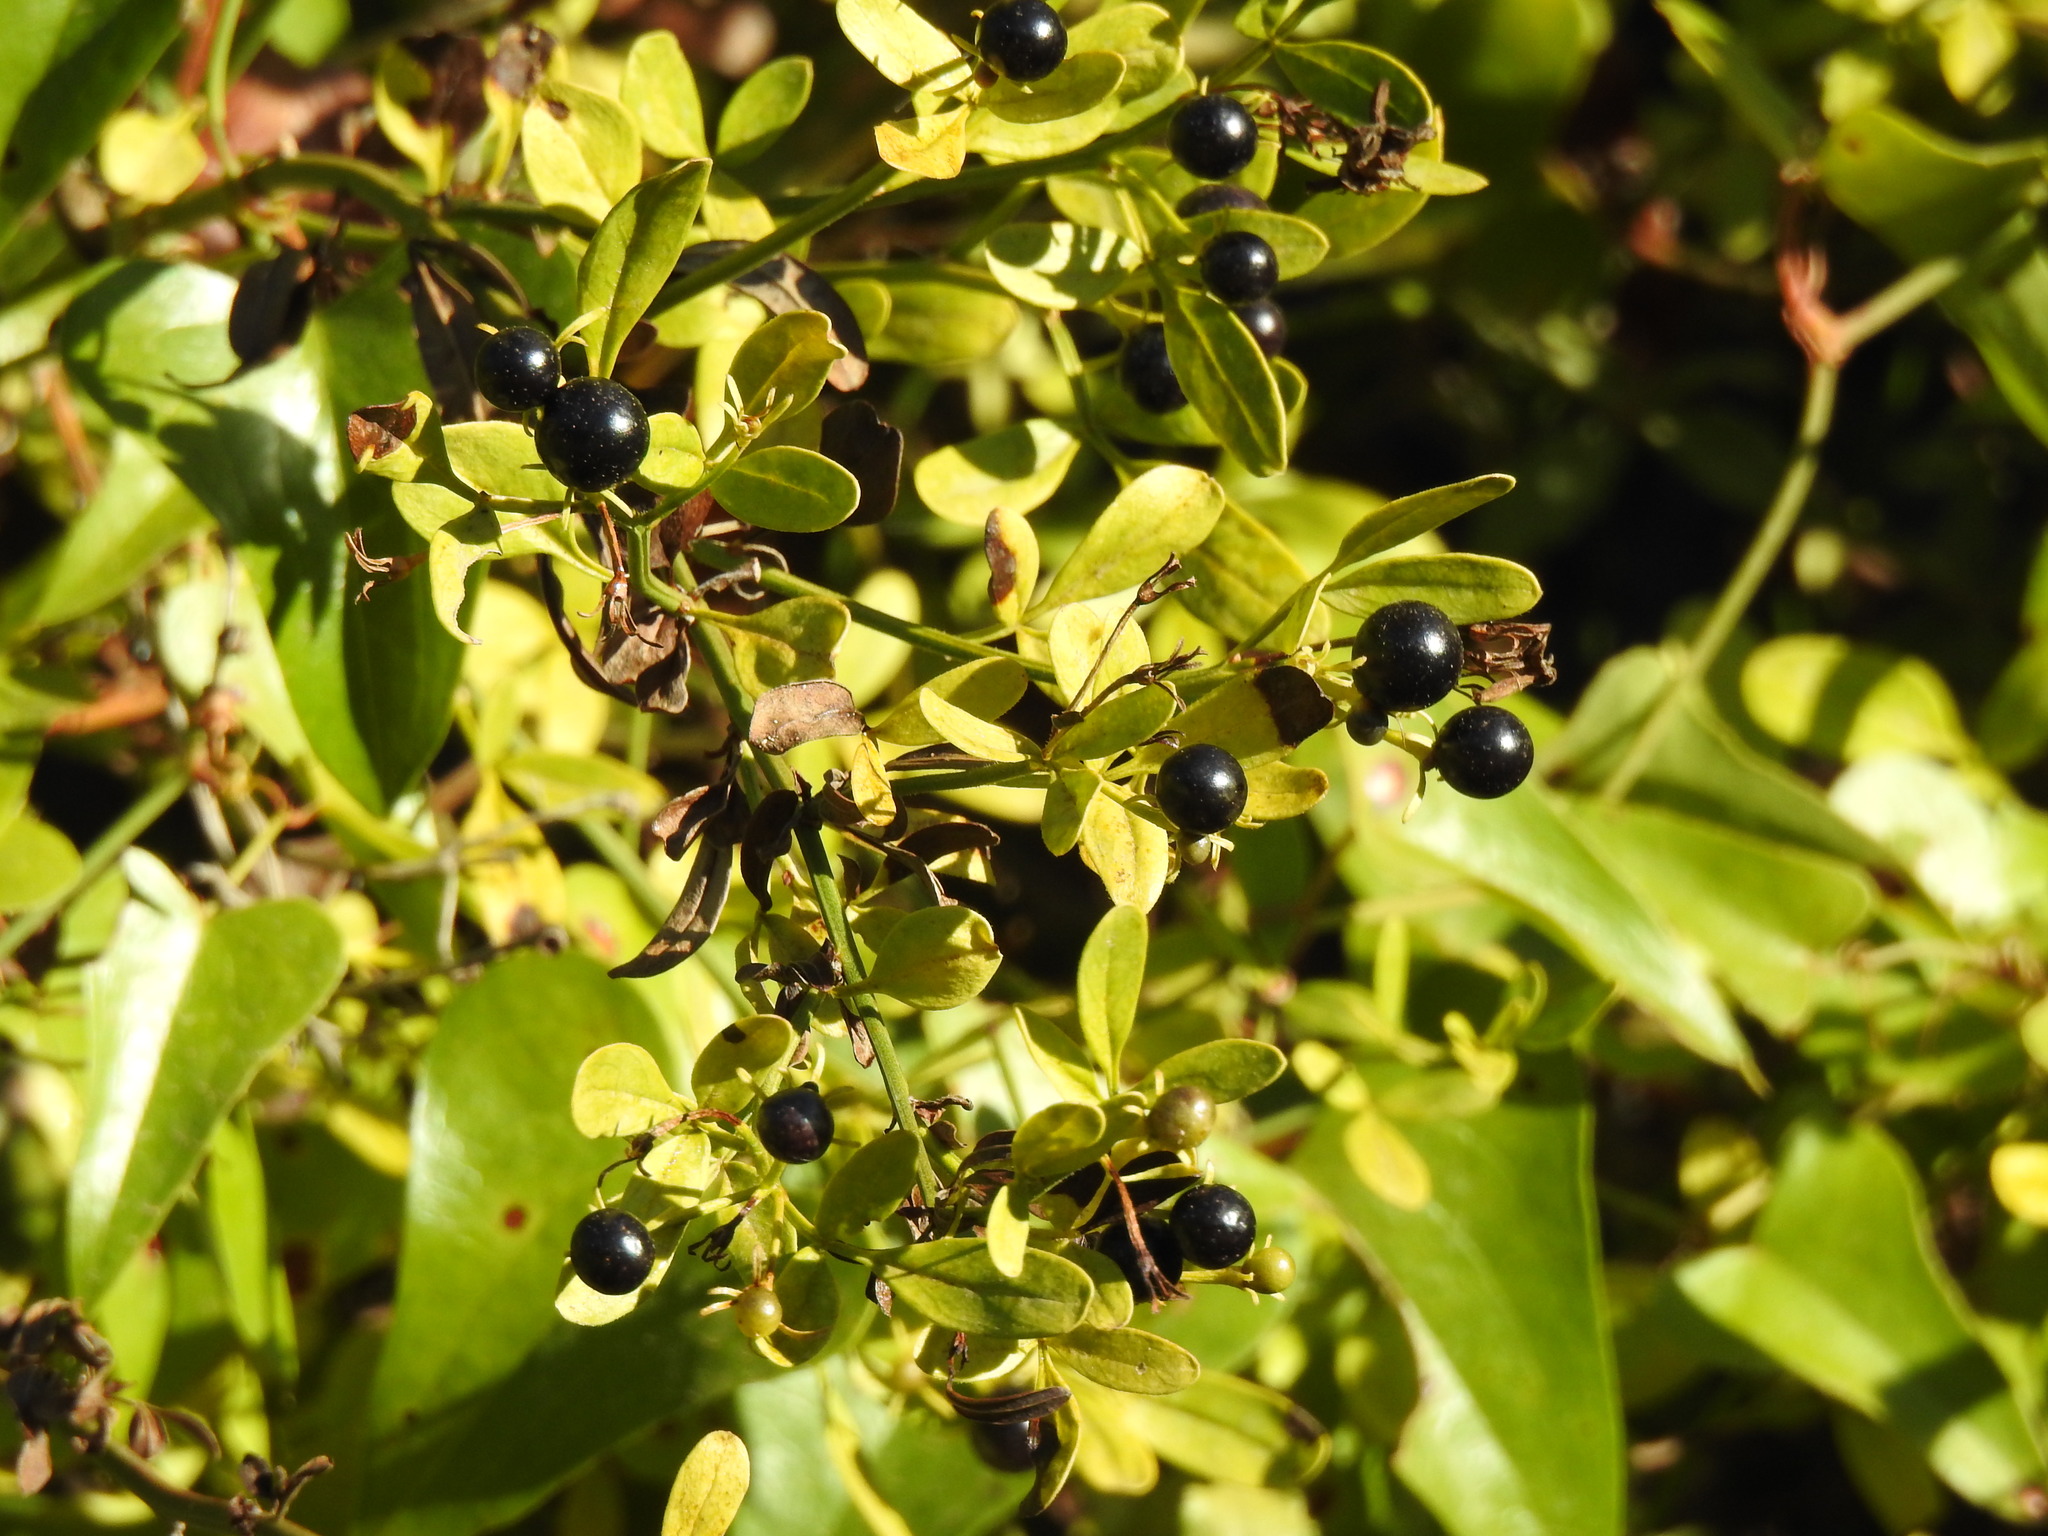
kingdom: Plantae
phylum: Tracheophyta
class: Magnoliopsida
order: Lamiales
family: Oleaceae
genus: Chrysojasminum
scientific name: Chrysojasminum fruticans
